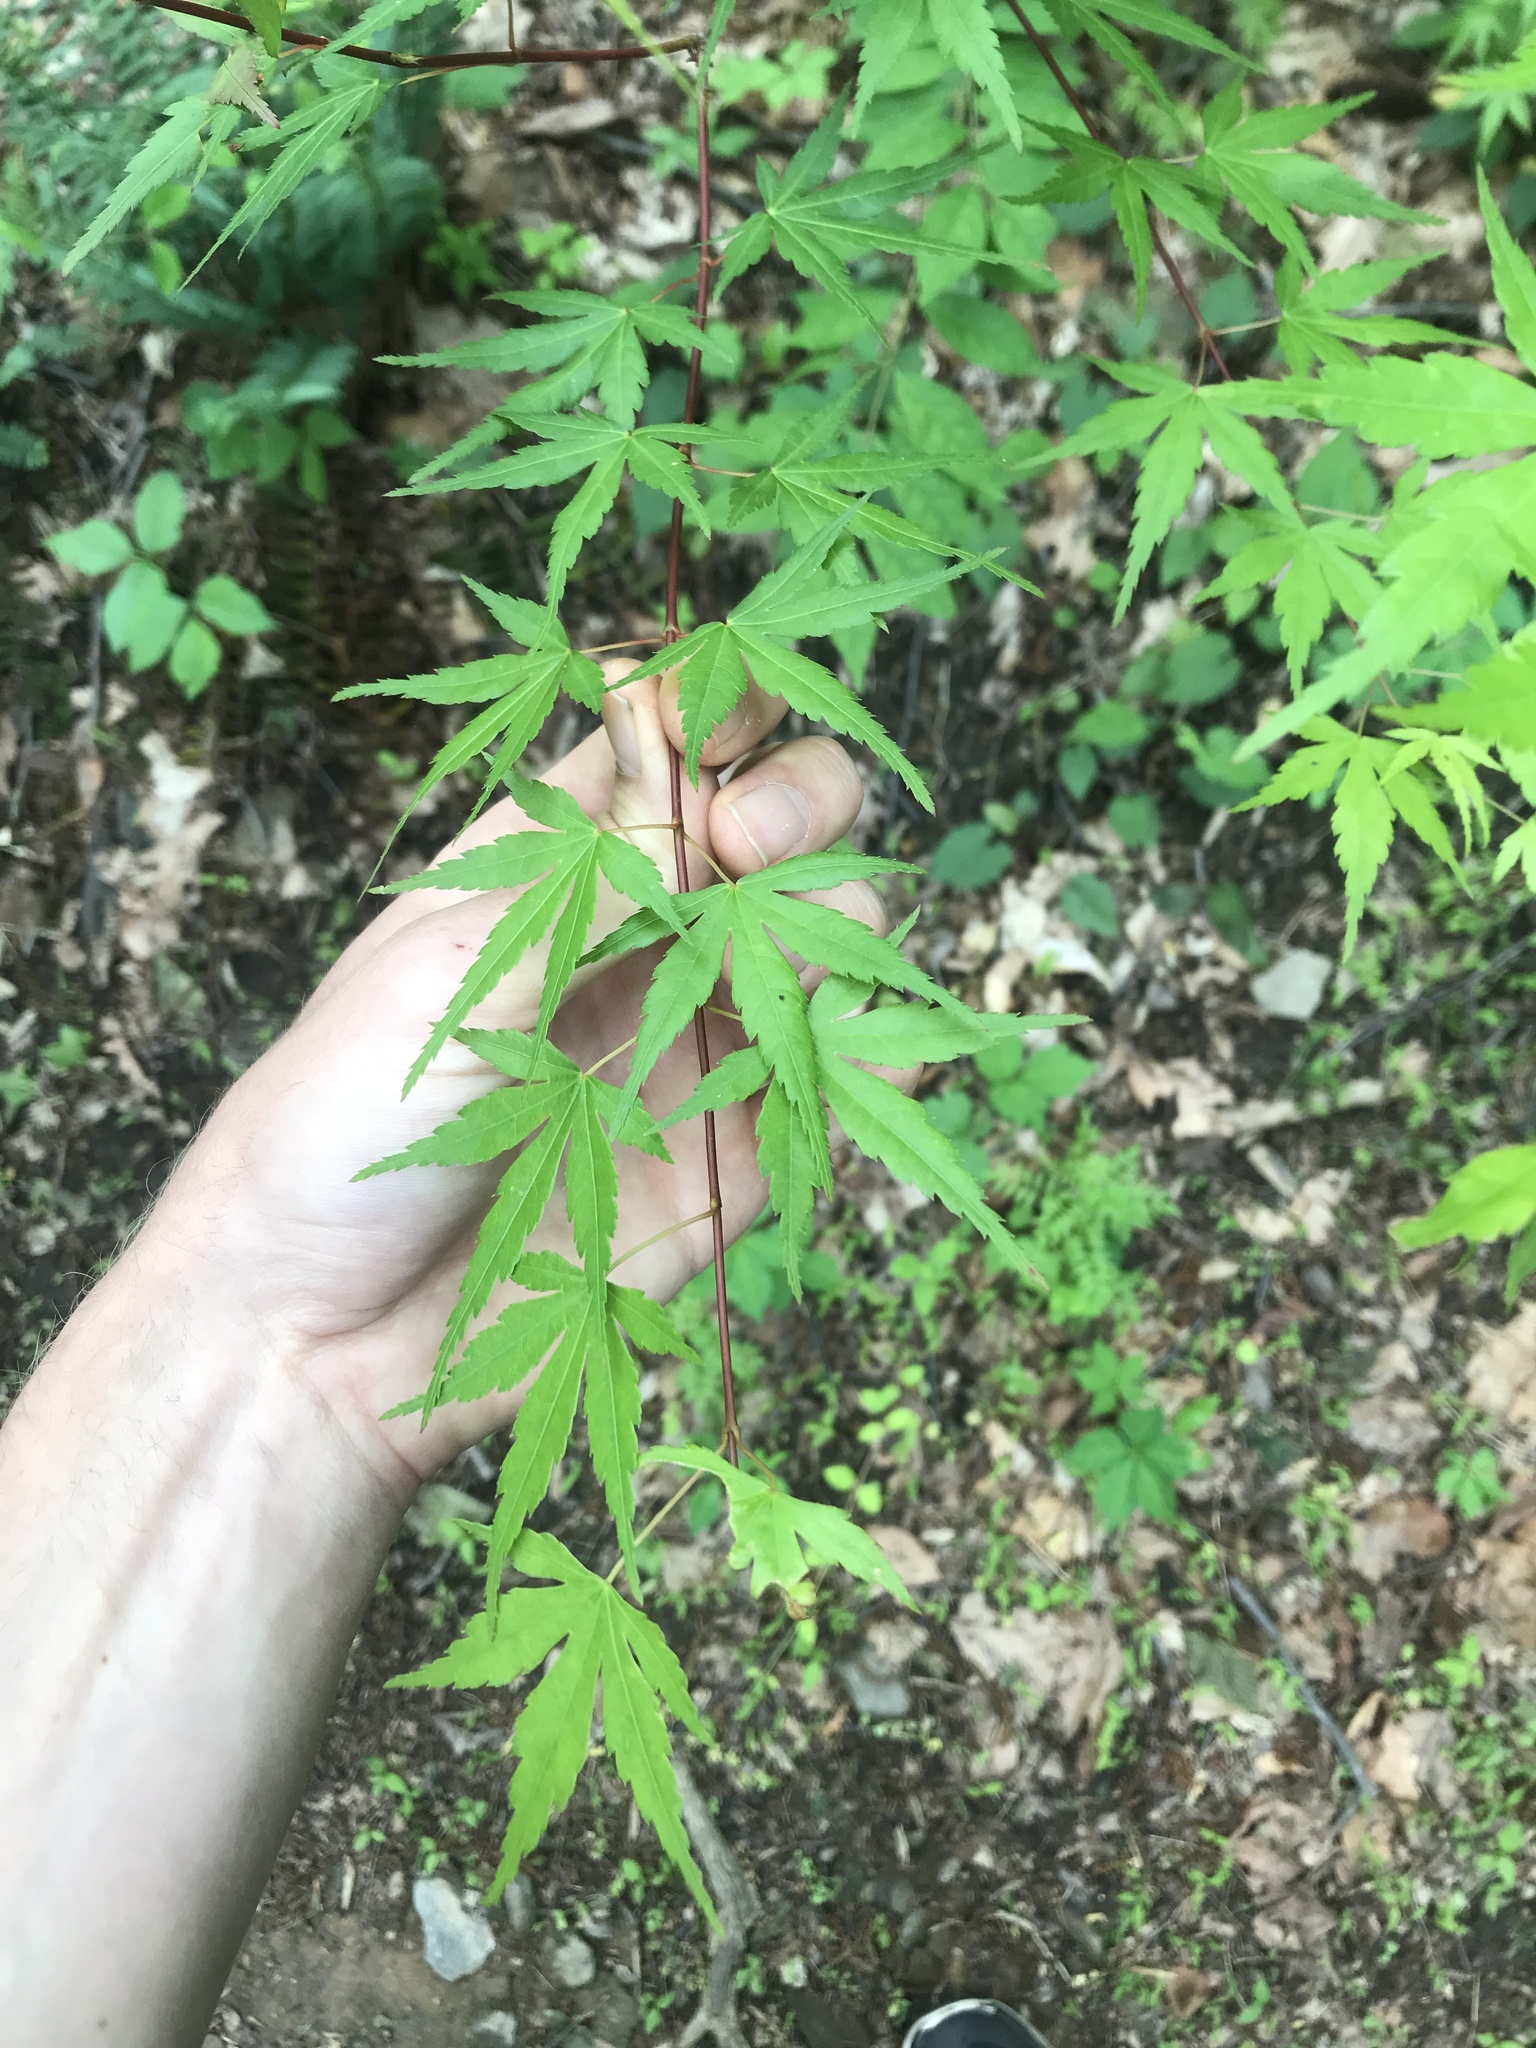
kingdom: Plantae
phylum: Tracheophyta
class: Magnoliopsida
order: Sapindales
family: Sapindaceae
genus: Acer
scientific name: Acer palmatum
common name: Japanese maple
